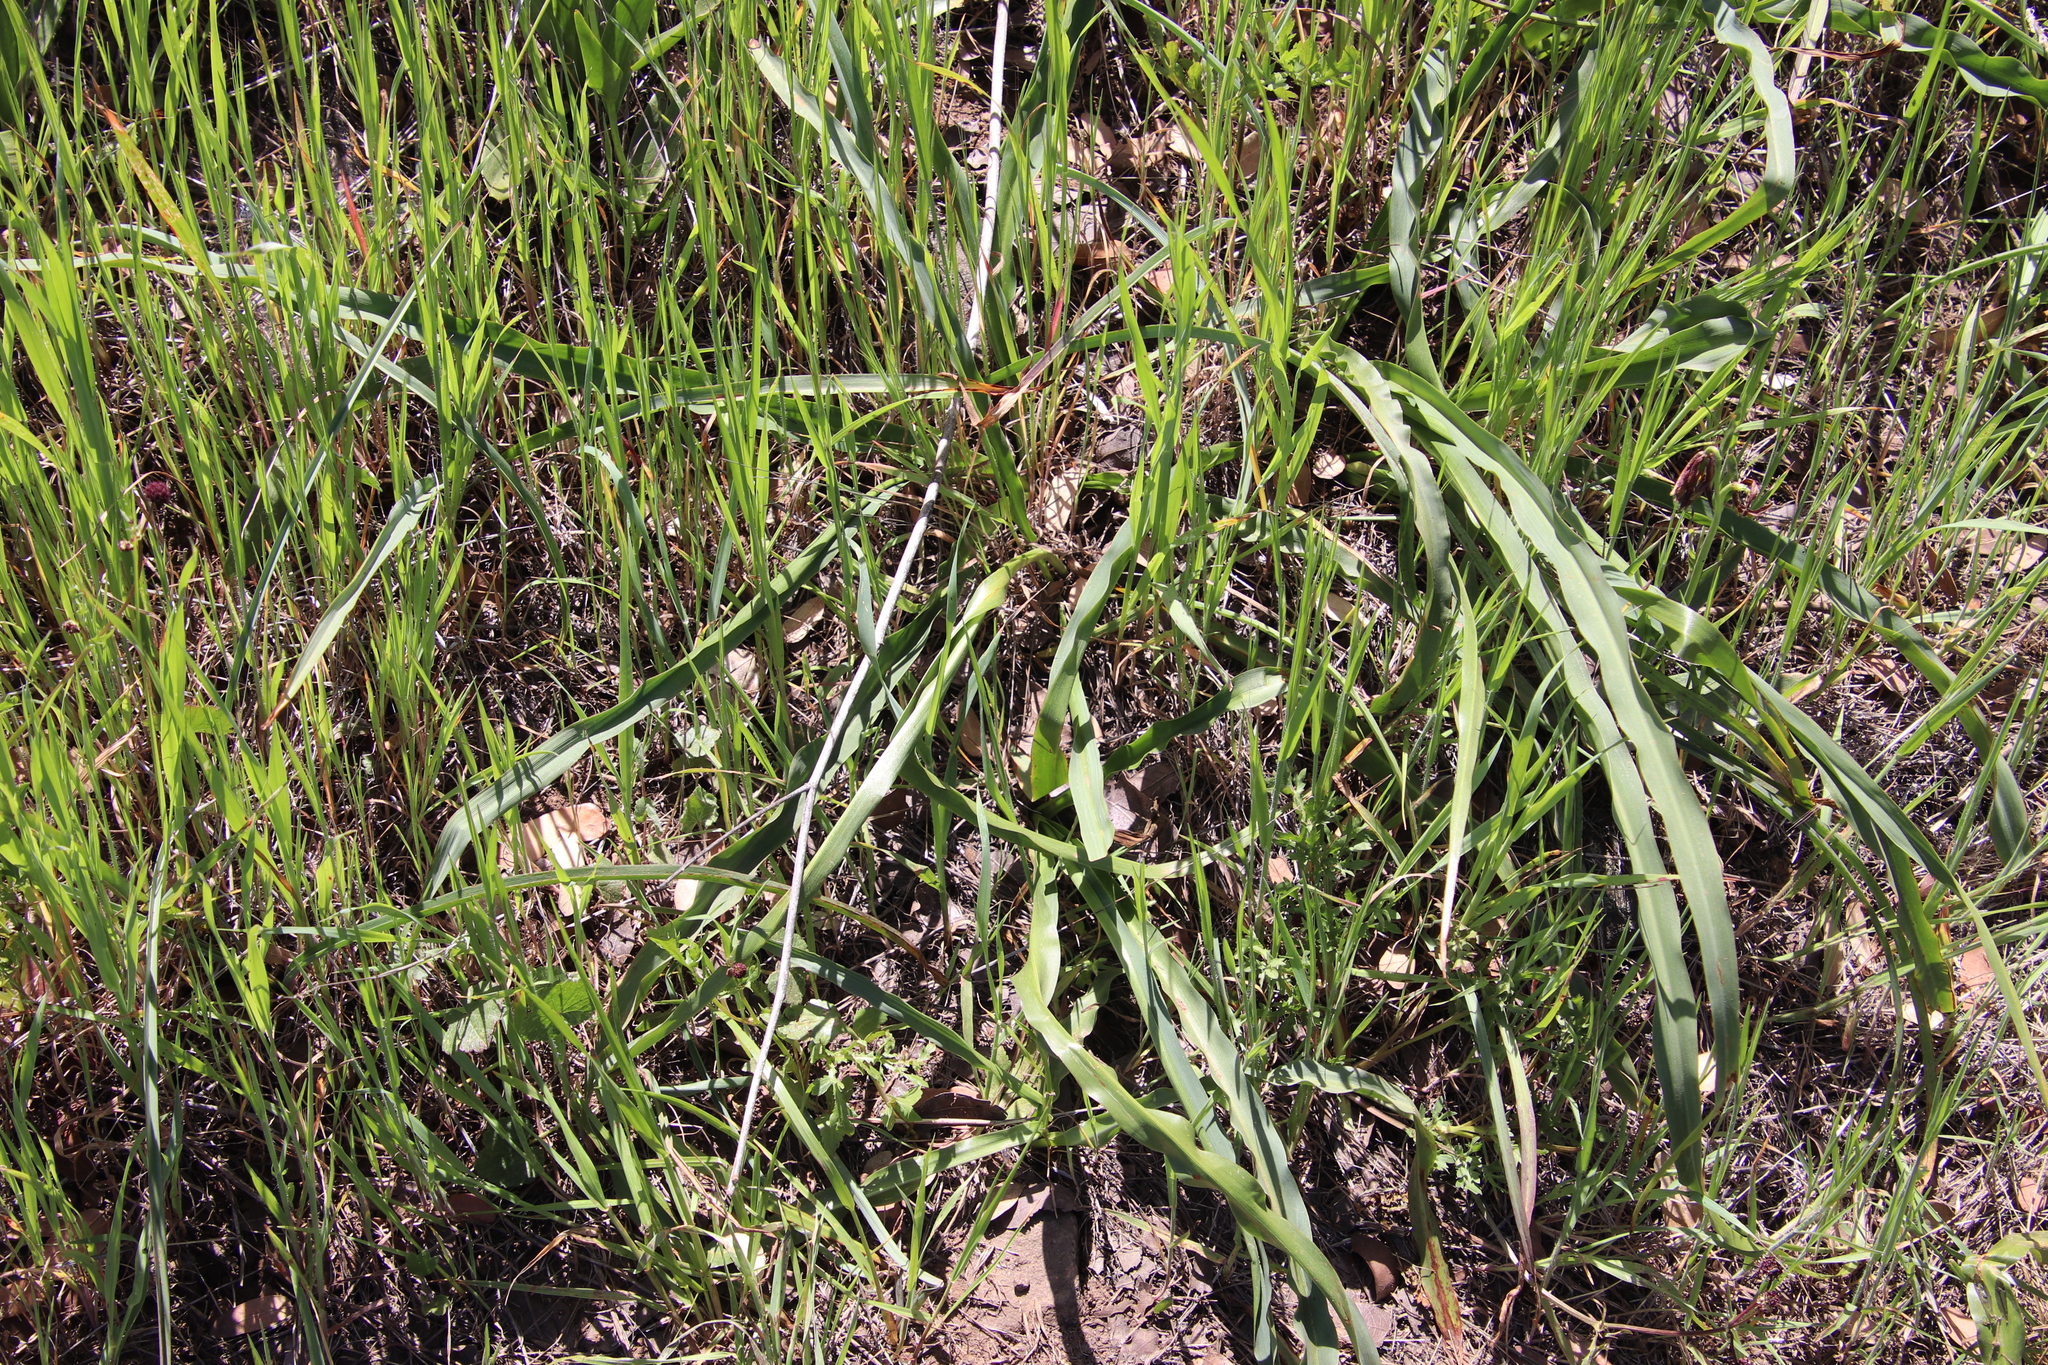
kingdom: Plantae
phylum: Tracheophyta
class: Liliopsida
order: Asparagales
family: Asparagaceae
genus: Chlorogalum
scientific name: Chlorogalum pomeridianum
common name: Amole
